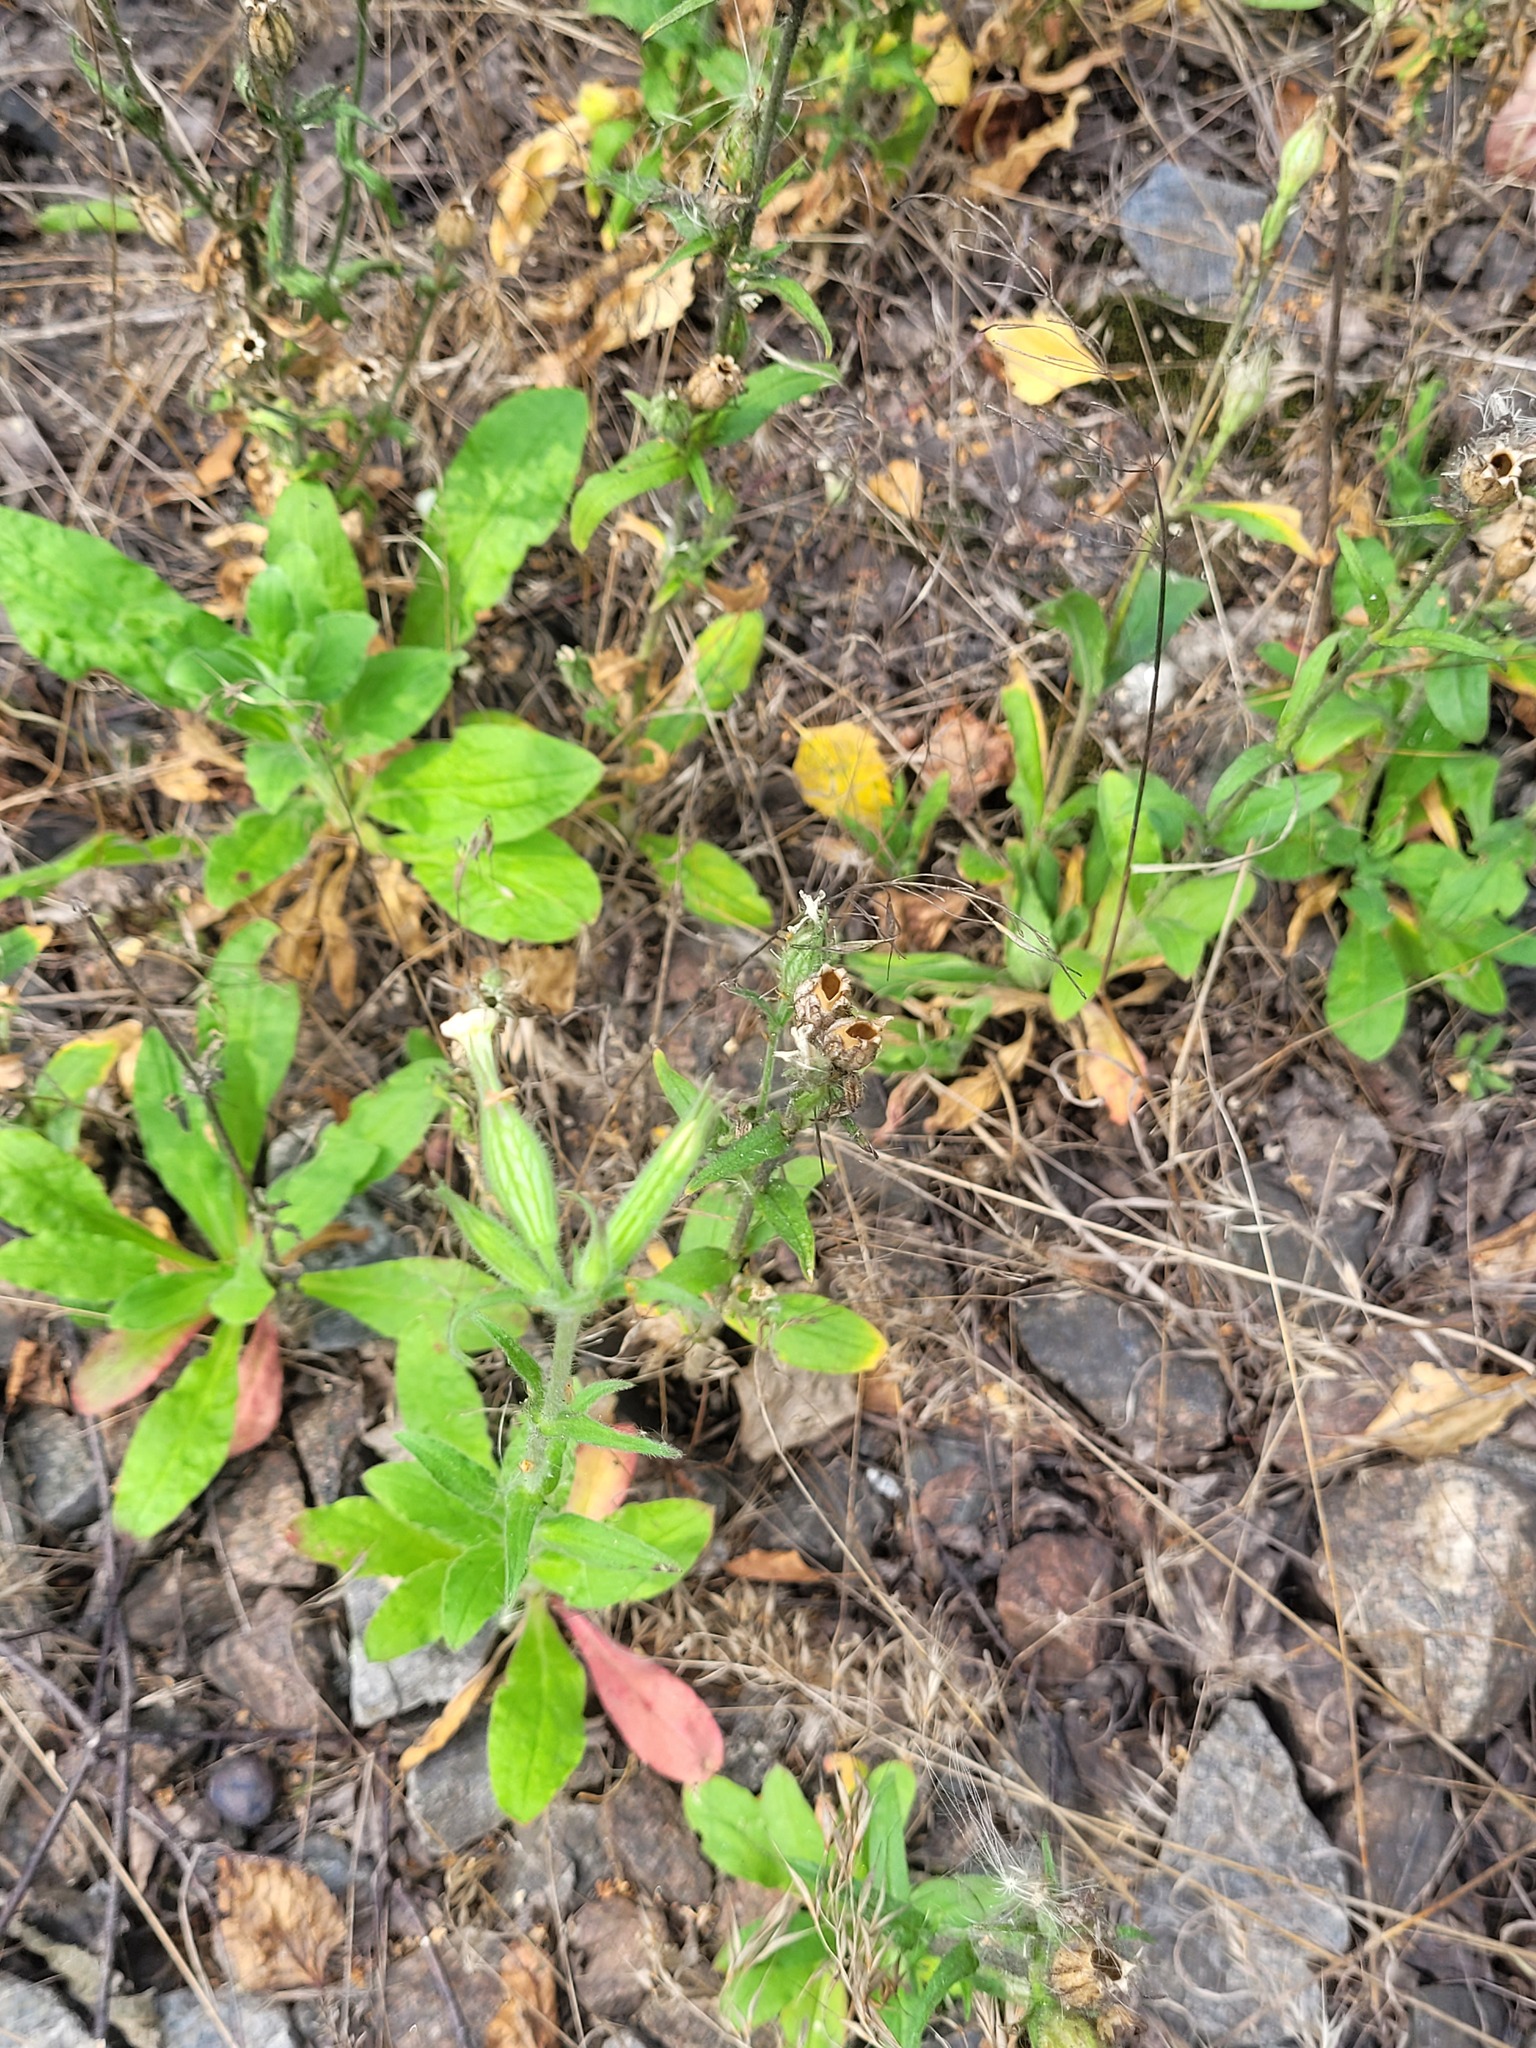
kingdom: Plantae
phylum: Tracheophyta
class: Magnoliopsida
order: Caryophyllales
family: Caryophyllaceae
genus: Silene
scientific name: Silene noctiflora
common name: Night-flowering catchfly
